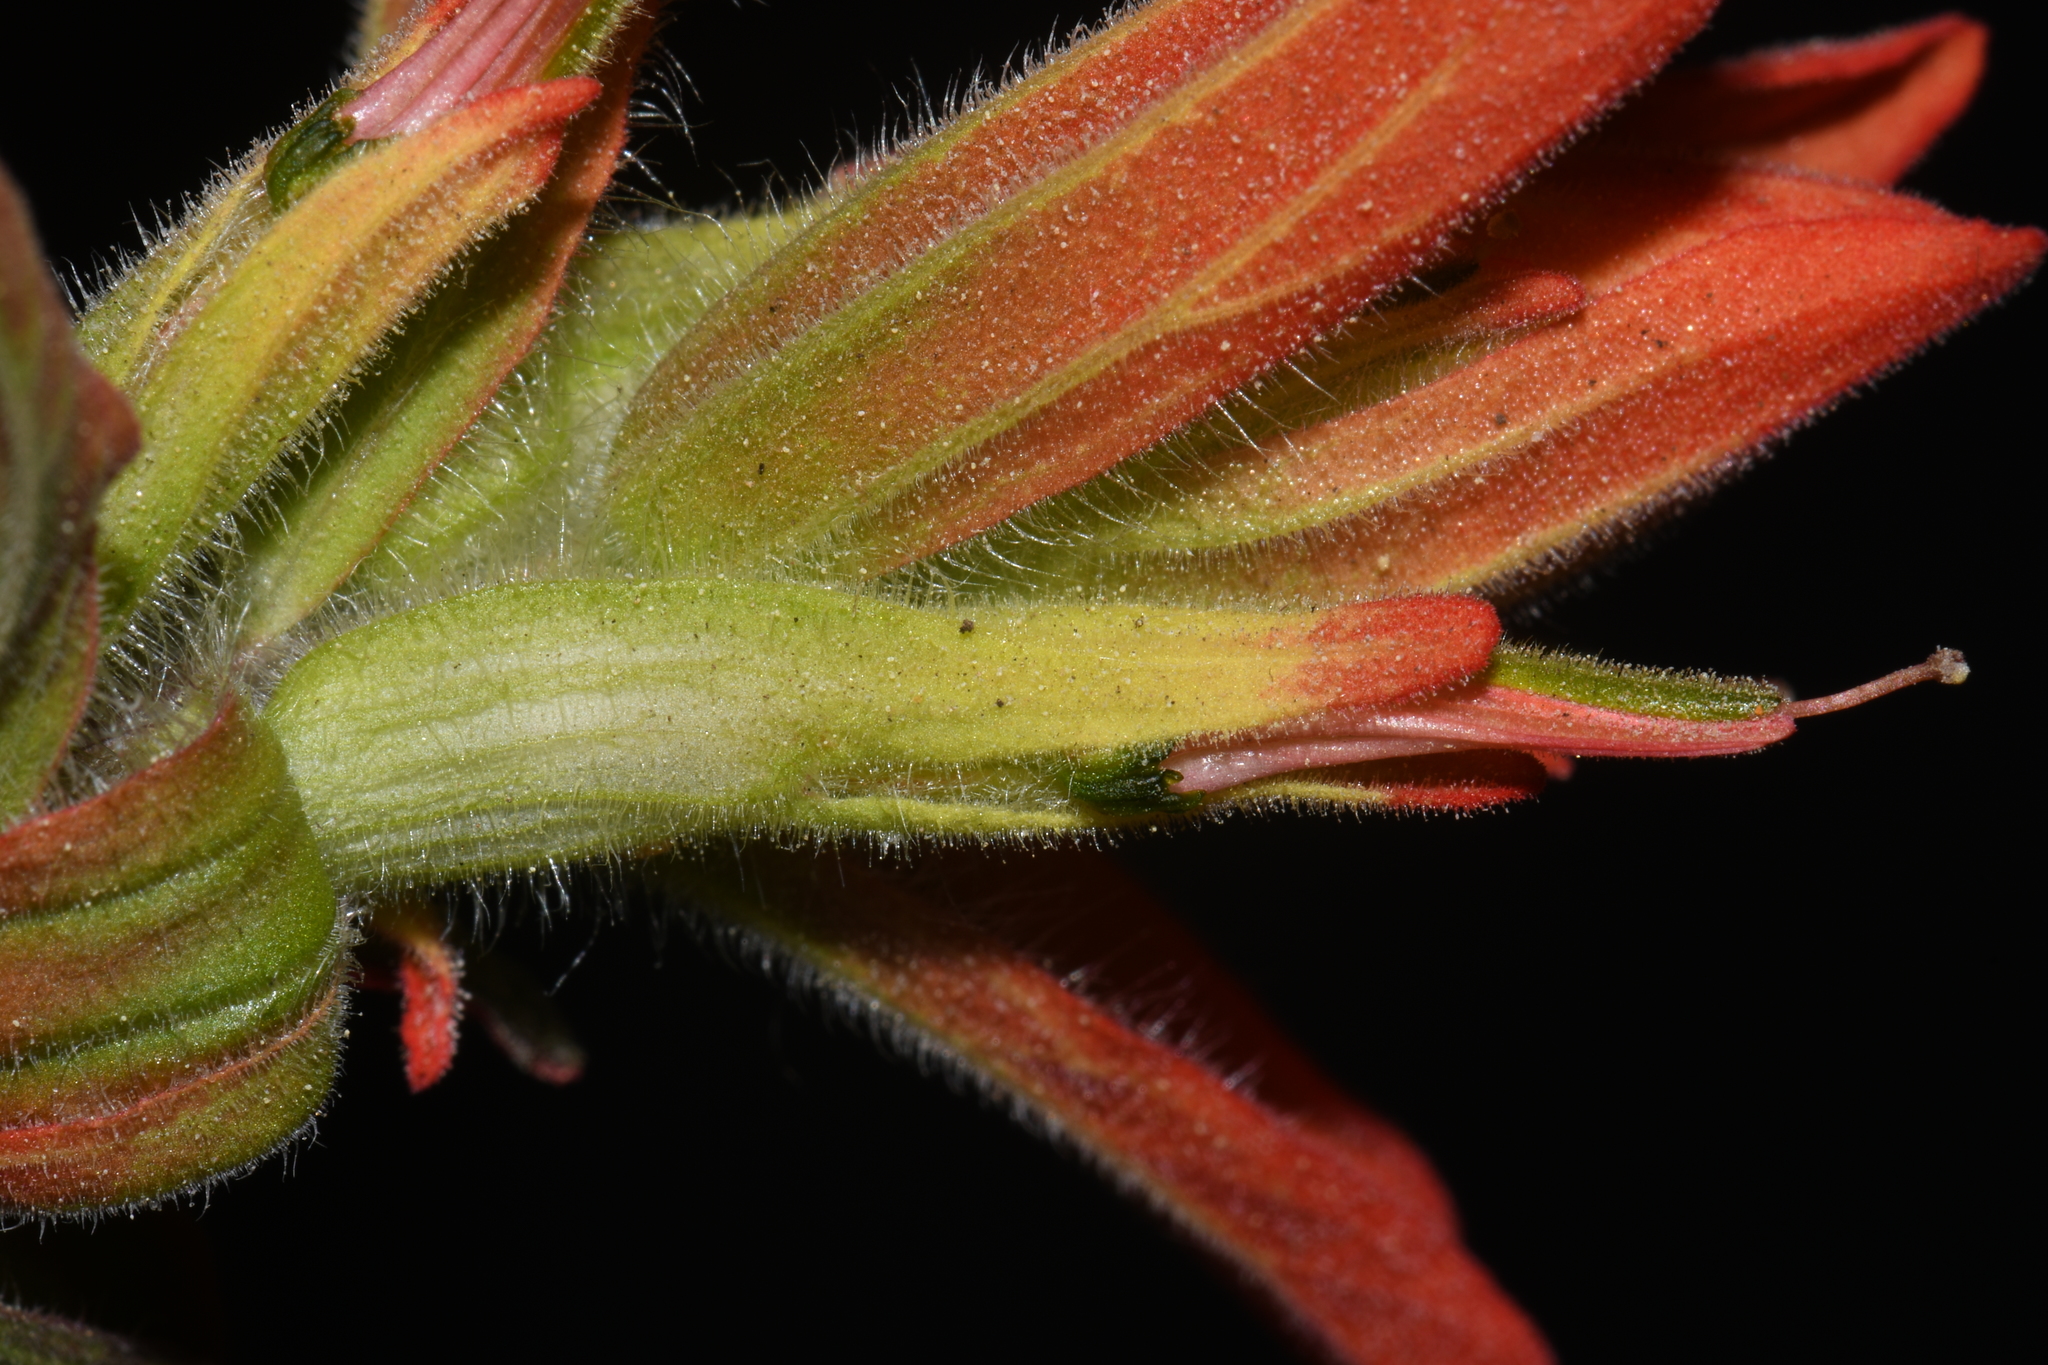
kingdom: Plantae
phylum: Tracheophyta
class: Magnoliopsida
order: Lamiales
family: Orobanchaceae
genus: Castilleja
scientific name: Castilleja nelsonii
